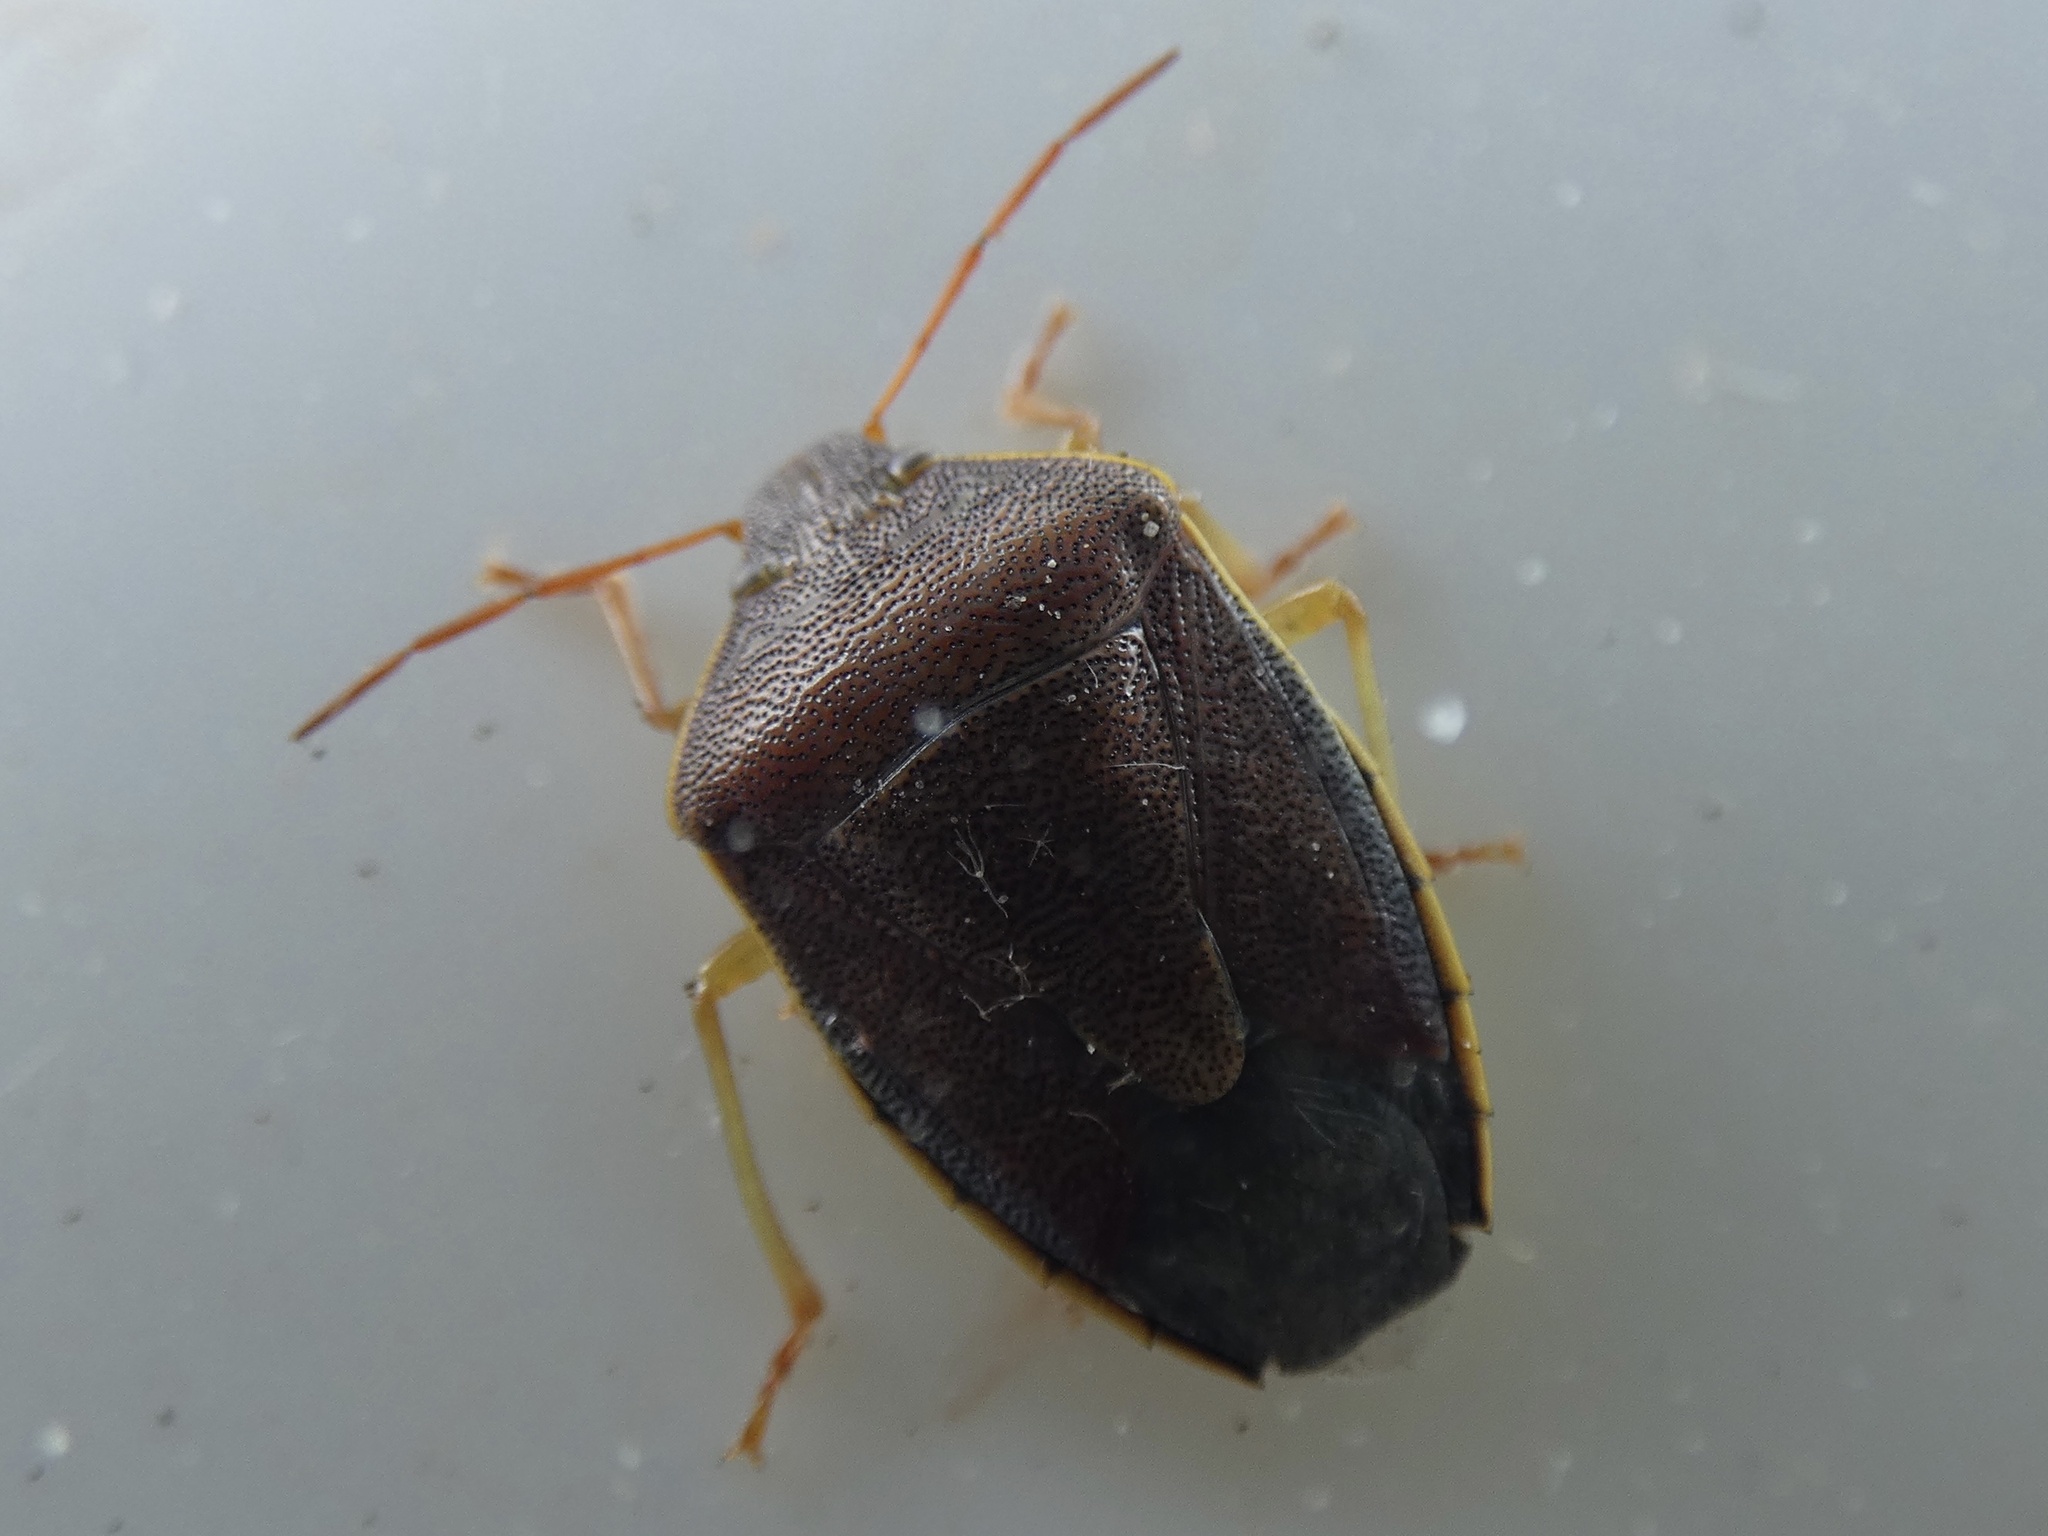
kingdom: Animalia
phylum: Arthropoda
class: Insecta
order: Hemiptera
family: Pentatomidae
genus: Piezodorus
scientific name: Piezodorus lituratus
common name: Stink bug
